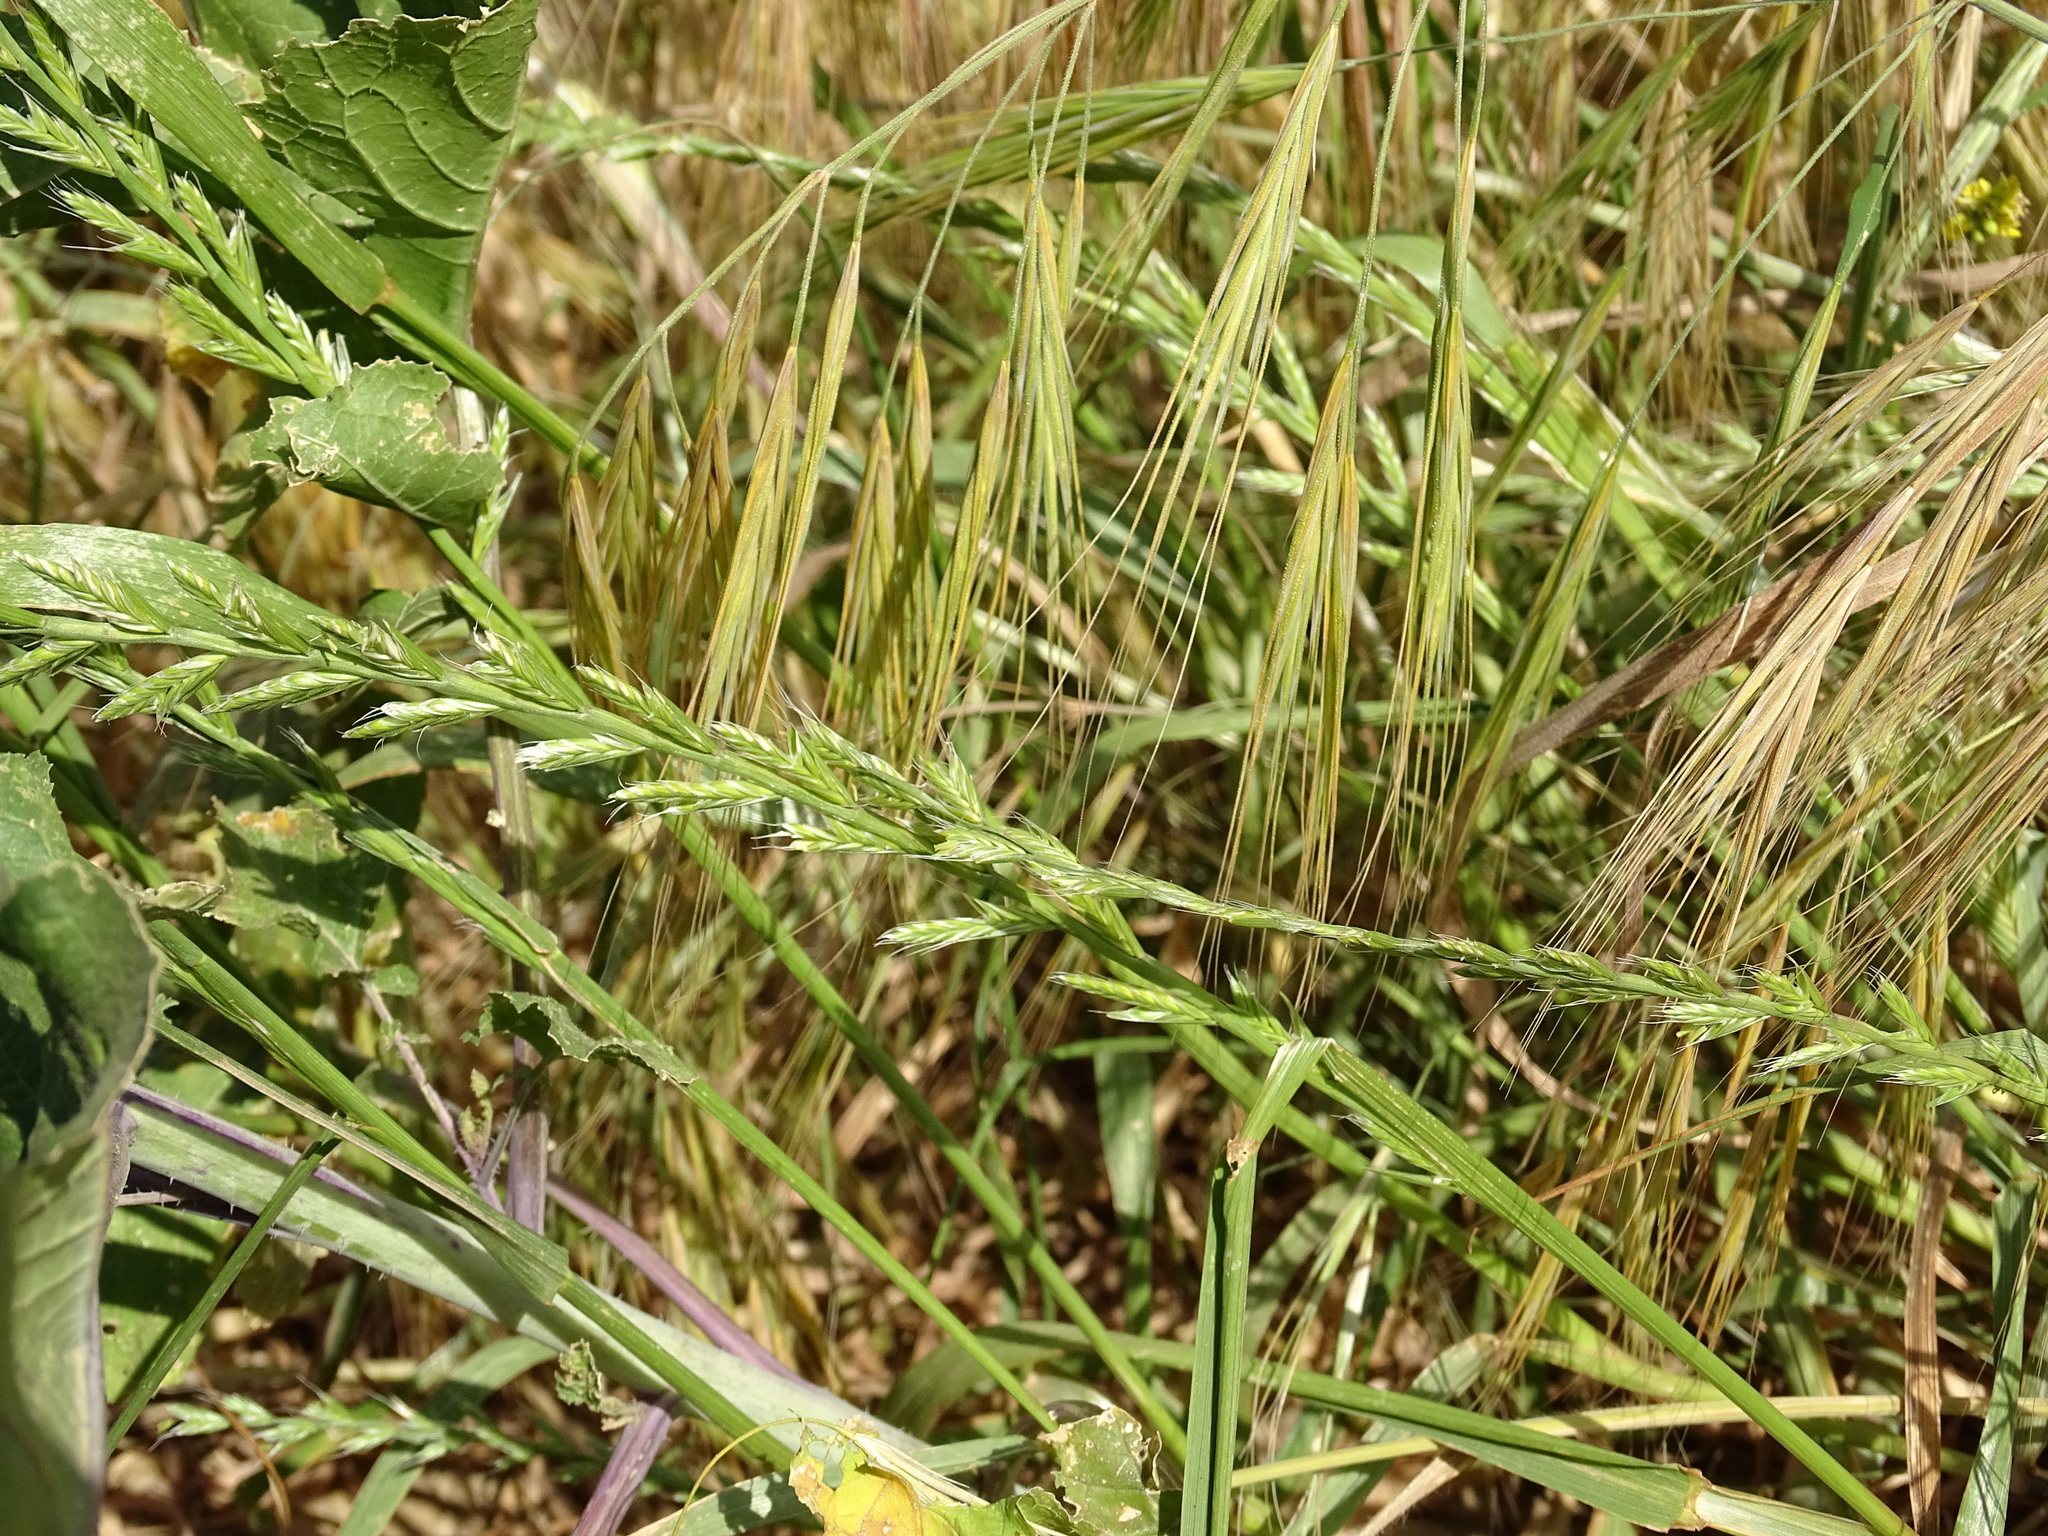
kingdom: Plantae
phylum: Tracheophyta
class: Liliopsida
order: Poales
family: Poaceae
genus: Lolium
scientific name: Lolium multiflorum
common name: Annual ryegrass
